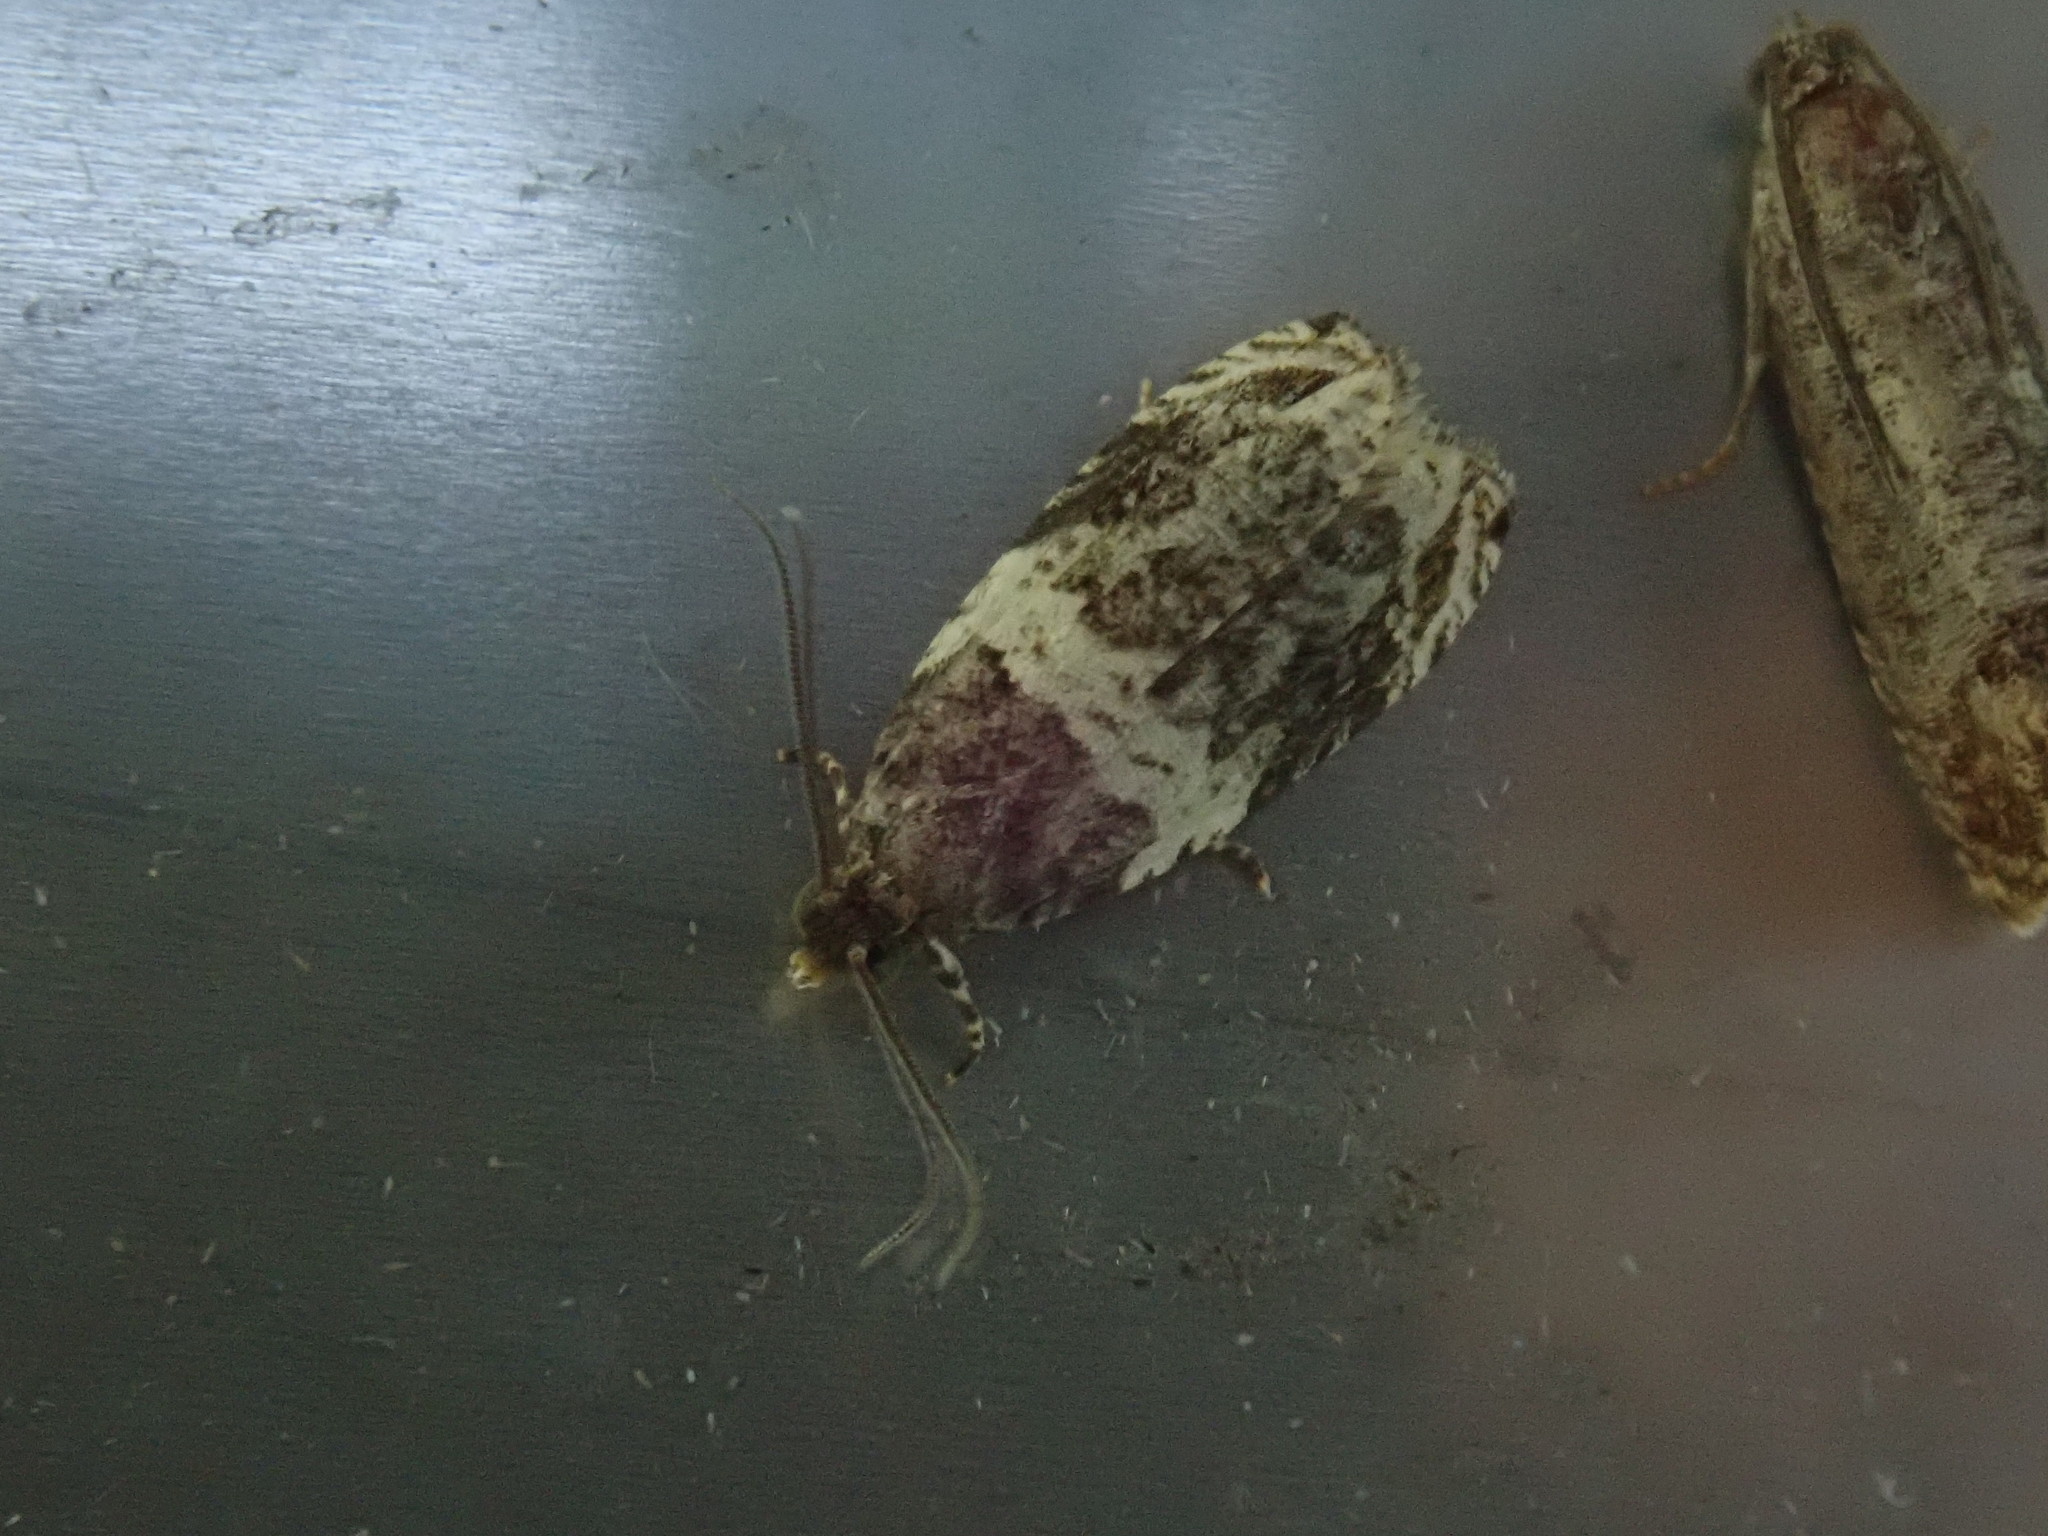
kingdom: Animalia
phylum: Arthropoda
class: Insecta
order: Lepidoptera
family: Tortricidae
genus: Olethreutes
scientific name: Olethreutes fasciatana
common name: Banded olethreutes moth
